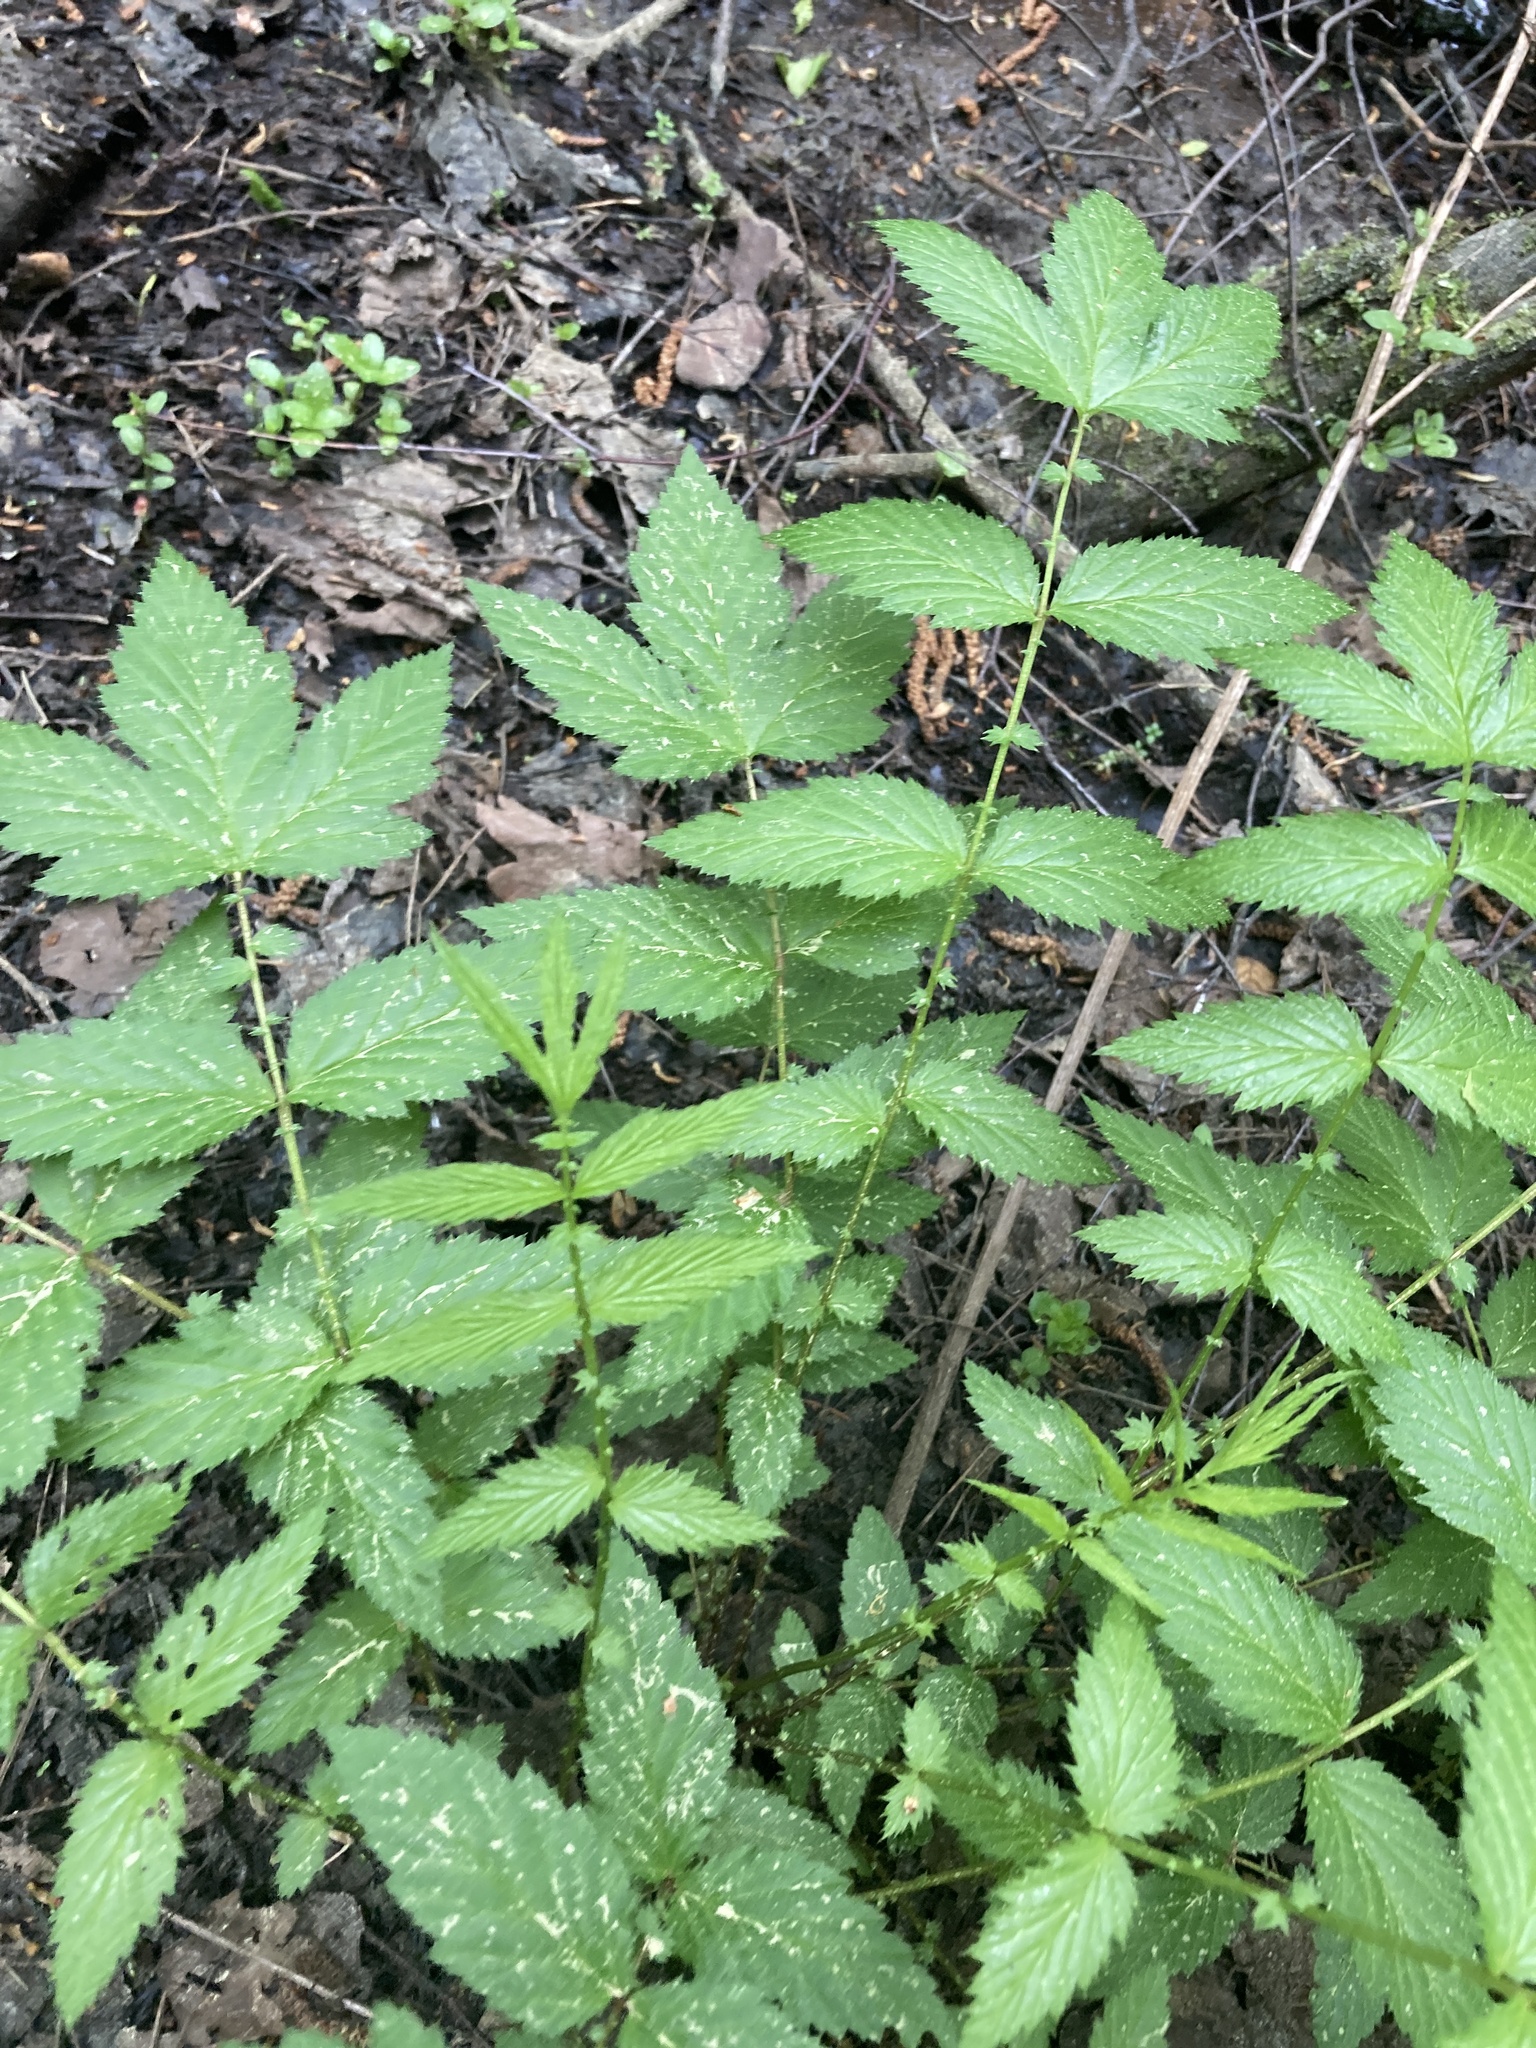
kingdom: Plantae
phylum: Tracheophyta
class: Magnoliopsida
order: Rosales
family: Rosaceae
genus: Filipendula
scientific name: Filipendula ulmaria
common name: Meadowsweet
